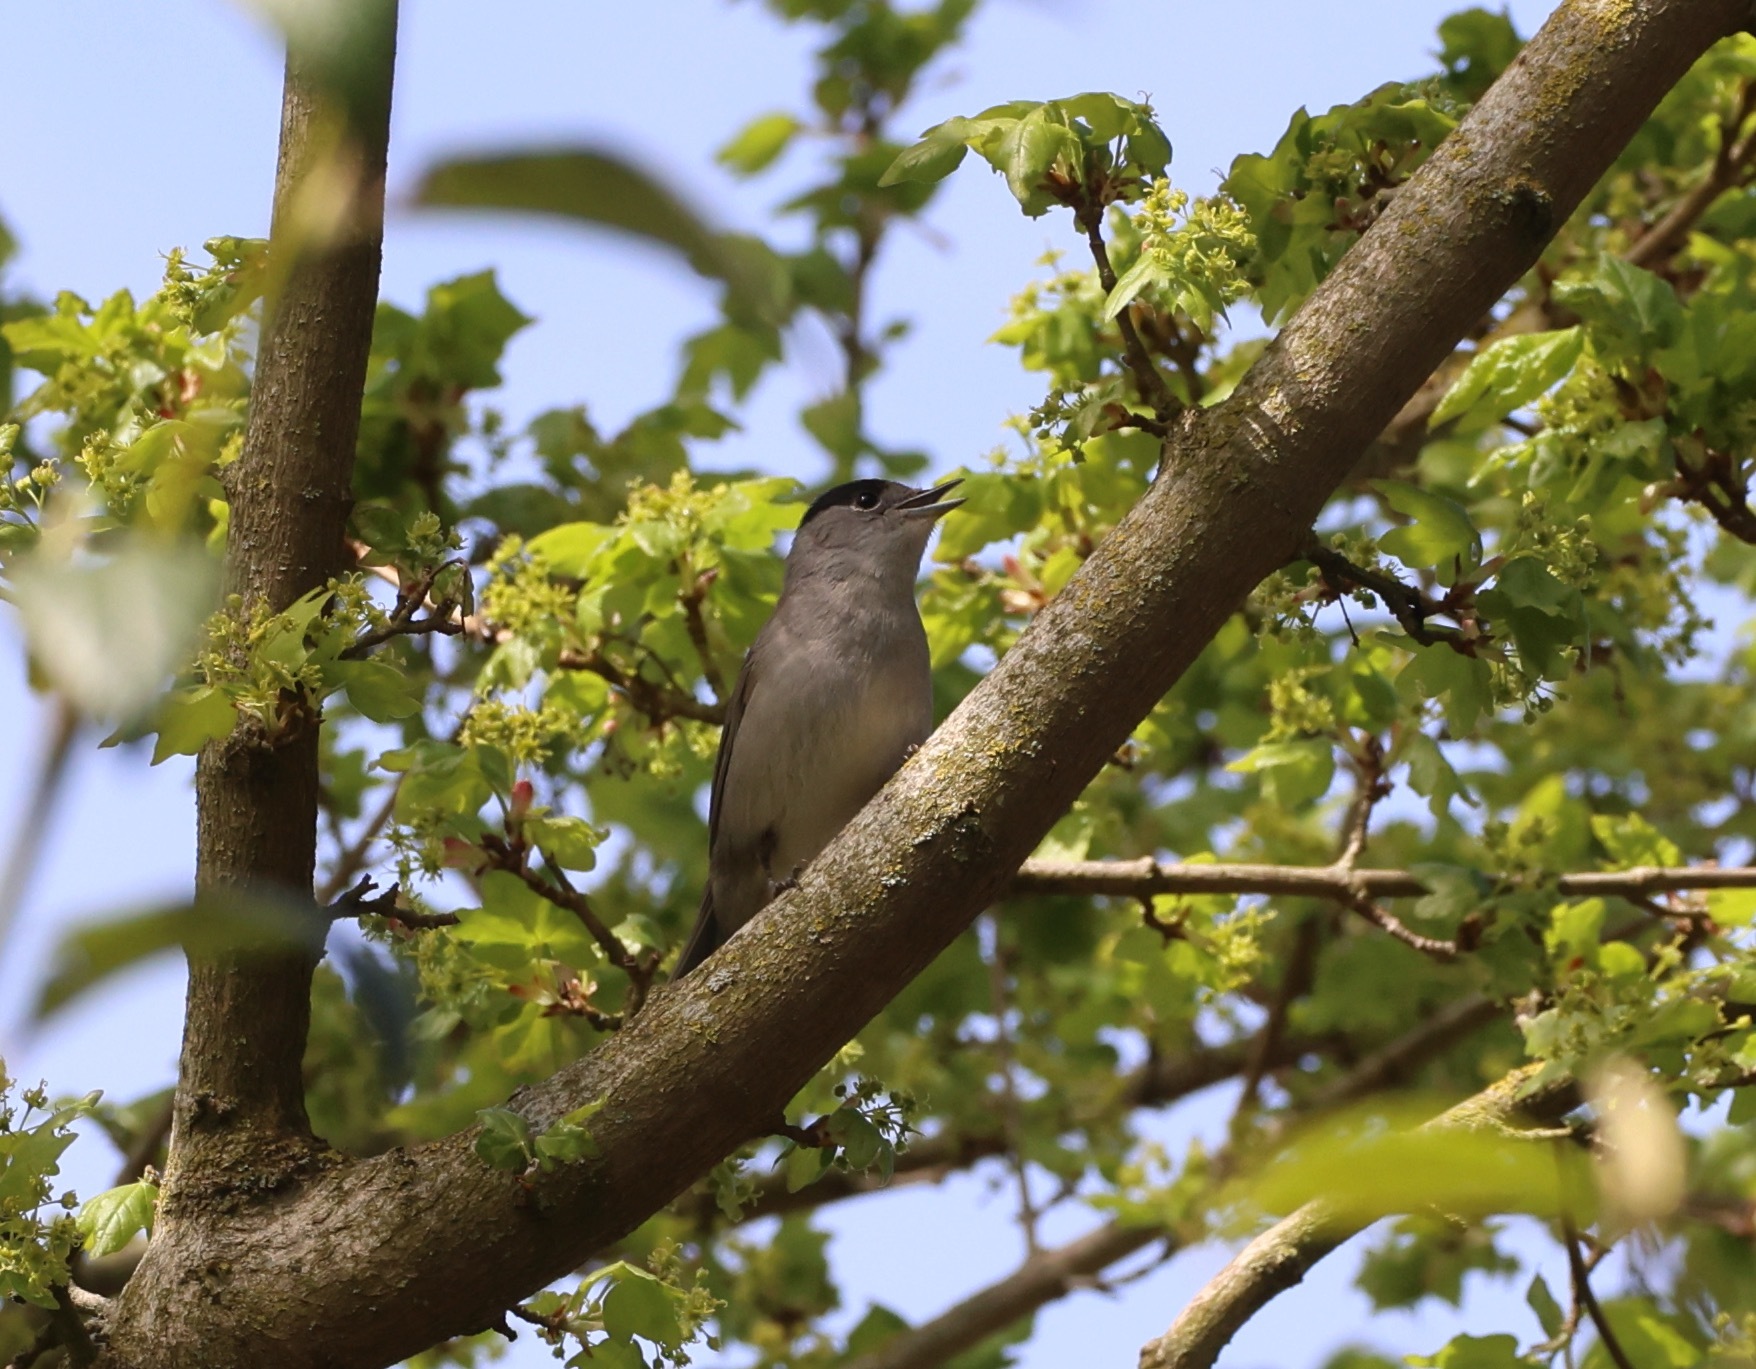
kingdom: Animalia
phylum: Chordata
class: Aves
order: Passeriformes
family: Sylviidae
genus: Sylvia
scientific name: Sylvia atricapilla
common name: Eurasian blackcap
